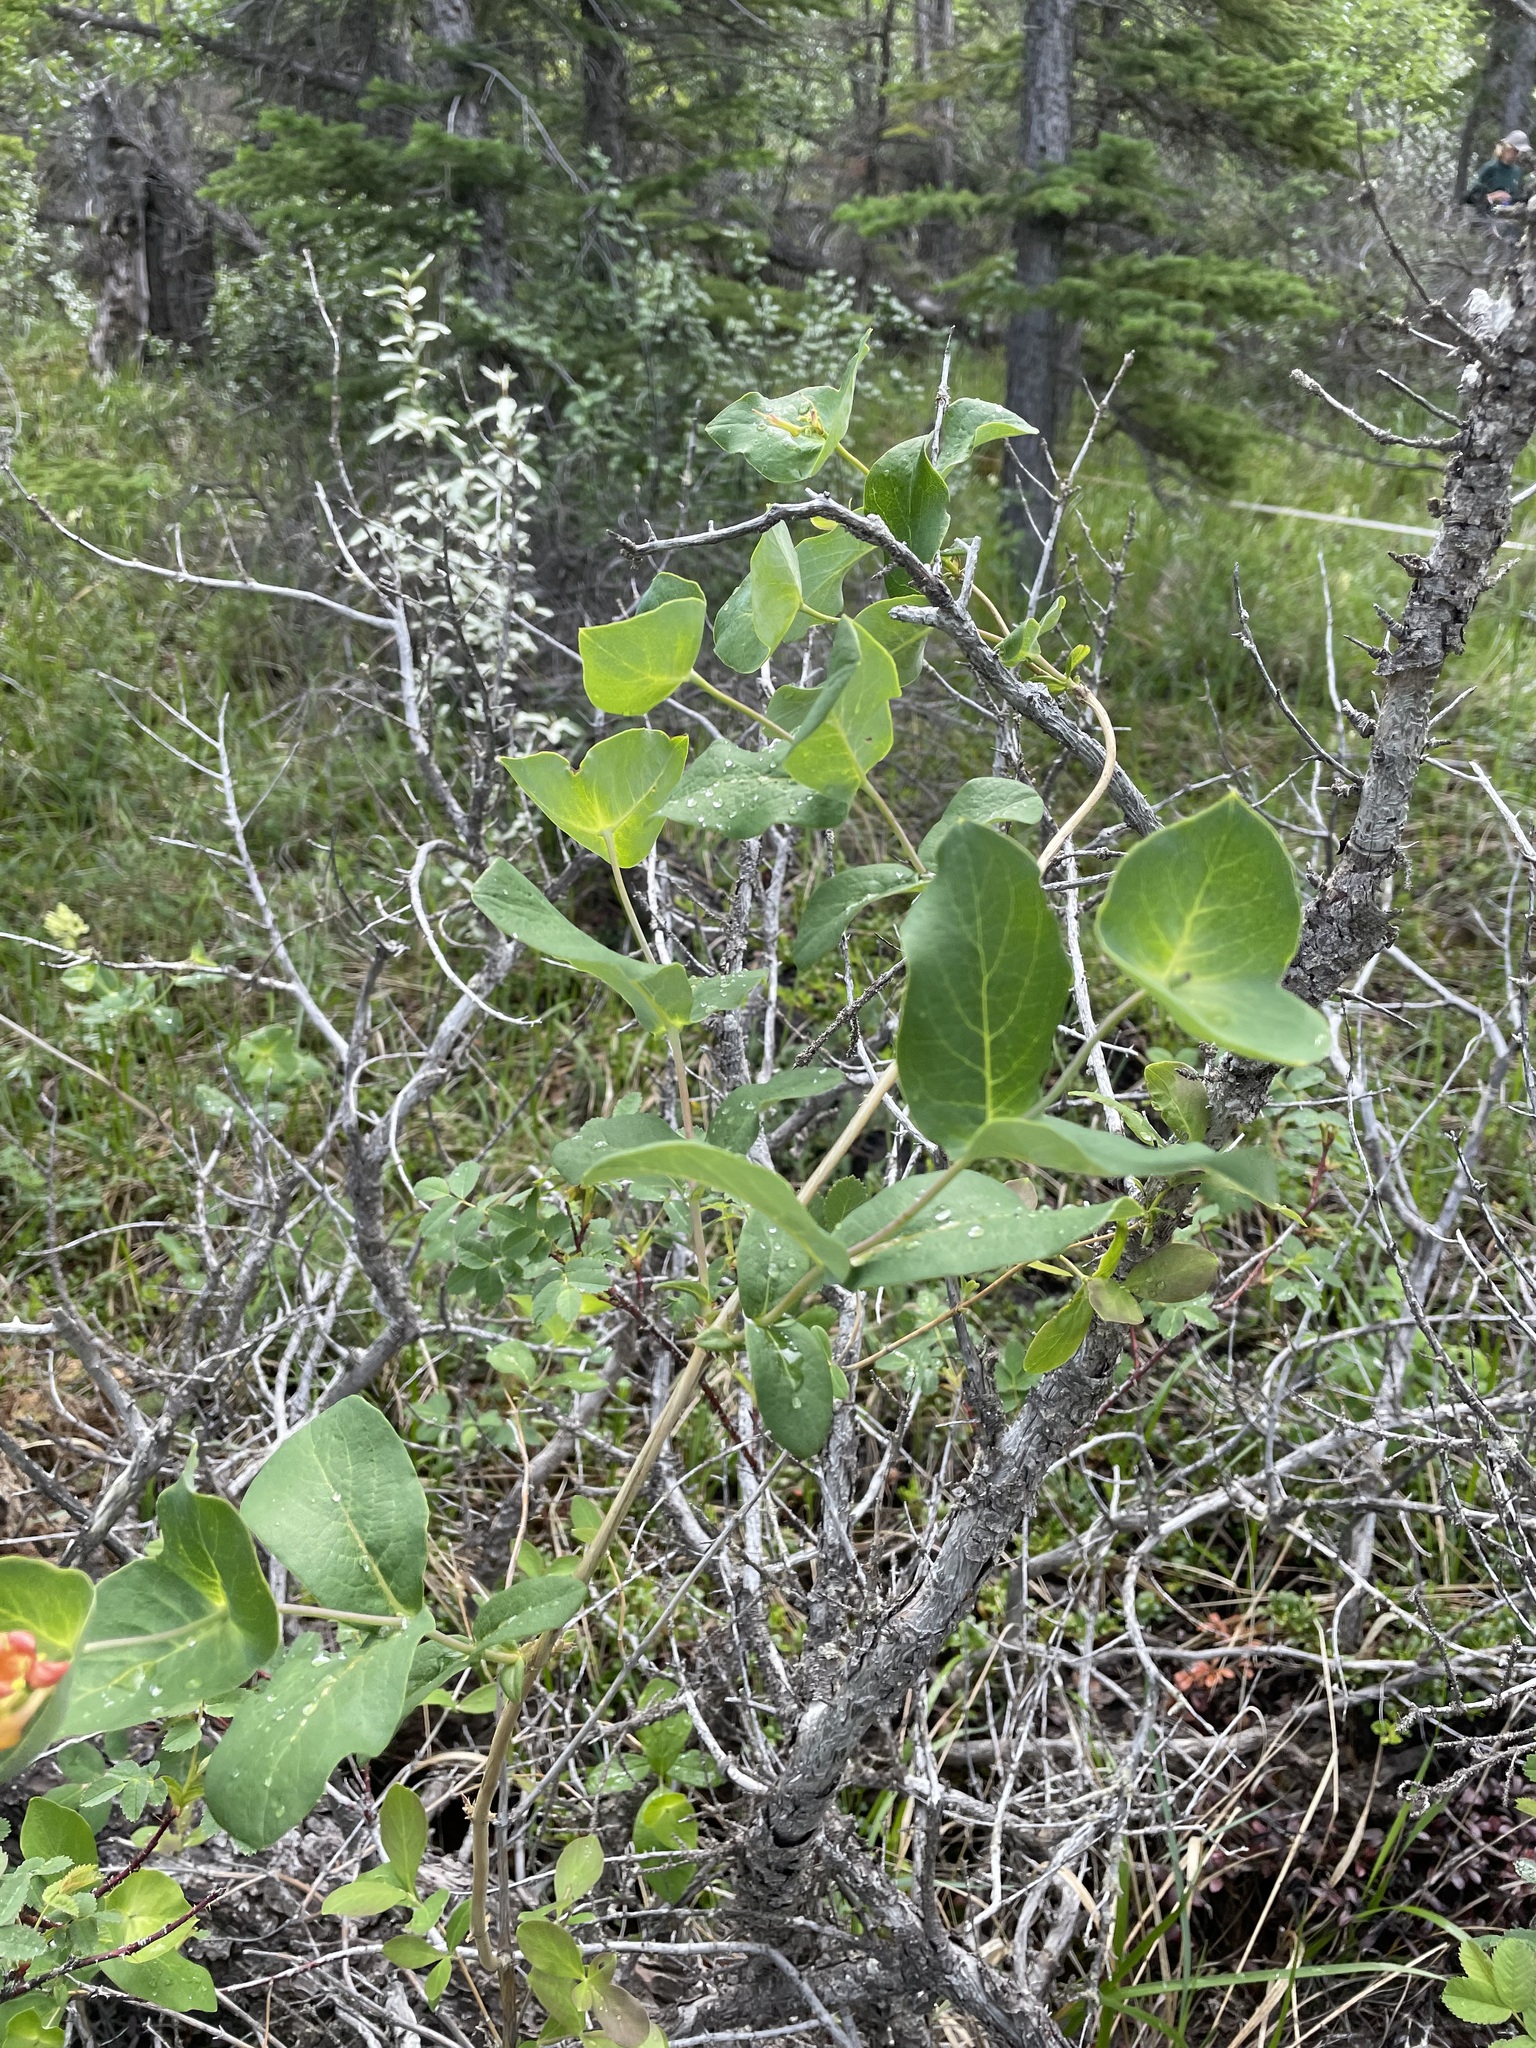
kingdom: Plantae
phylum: Tracheophyta
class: Magnoliopsida
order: Dipsacales
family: Caprifoliaceae
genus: Lonicera
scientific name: Lonicera dioica
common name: Limber honeysuckle
